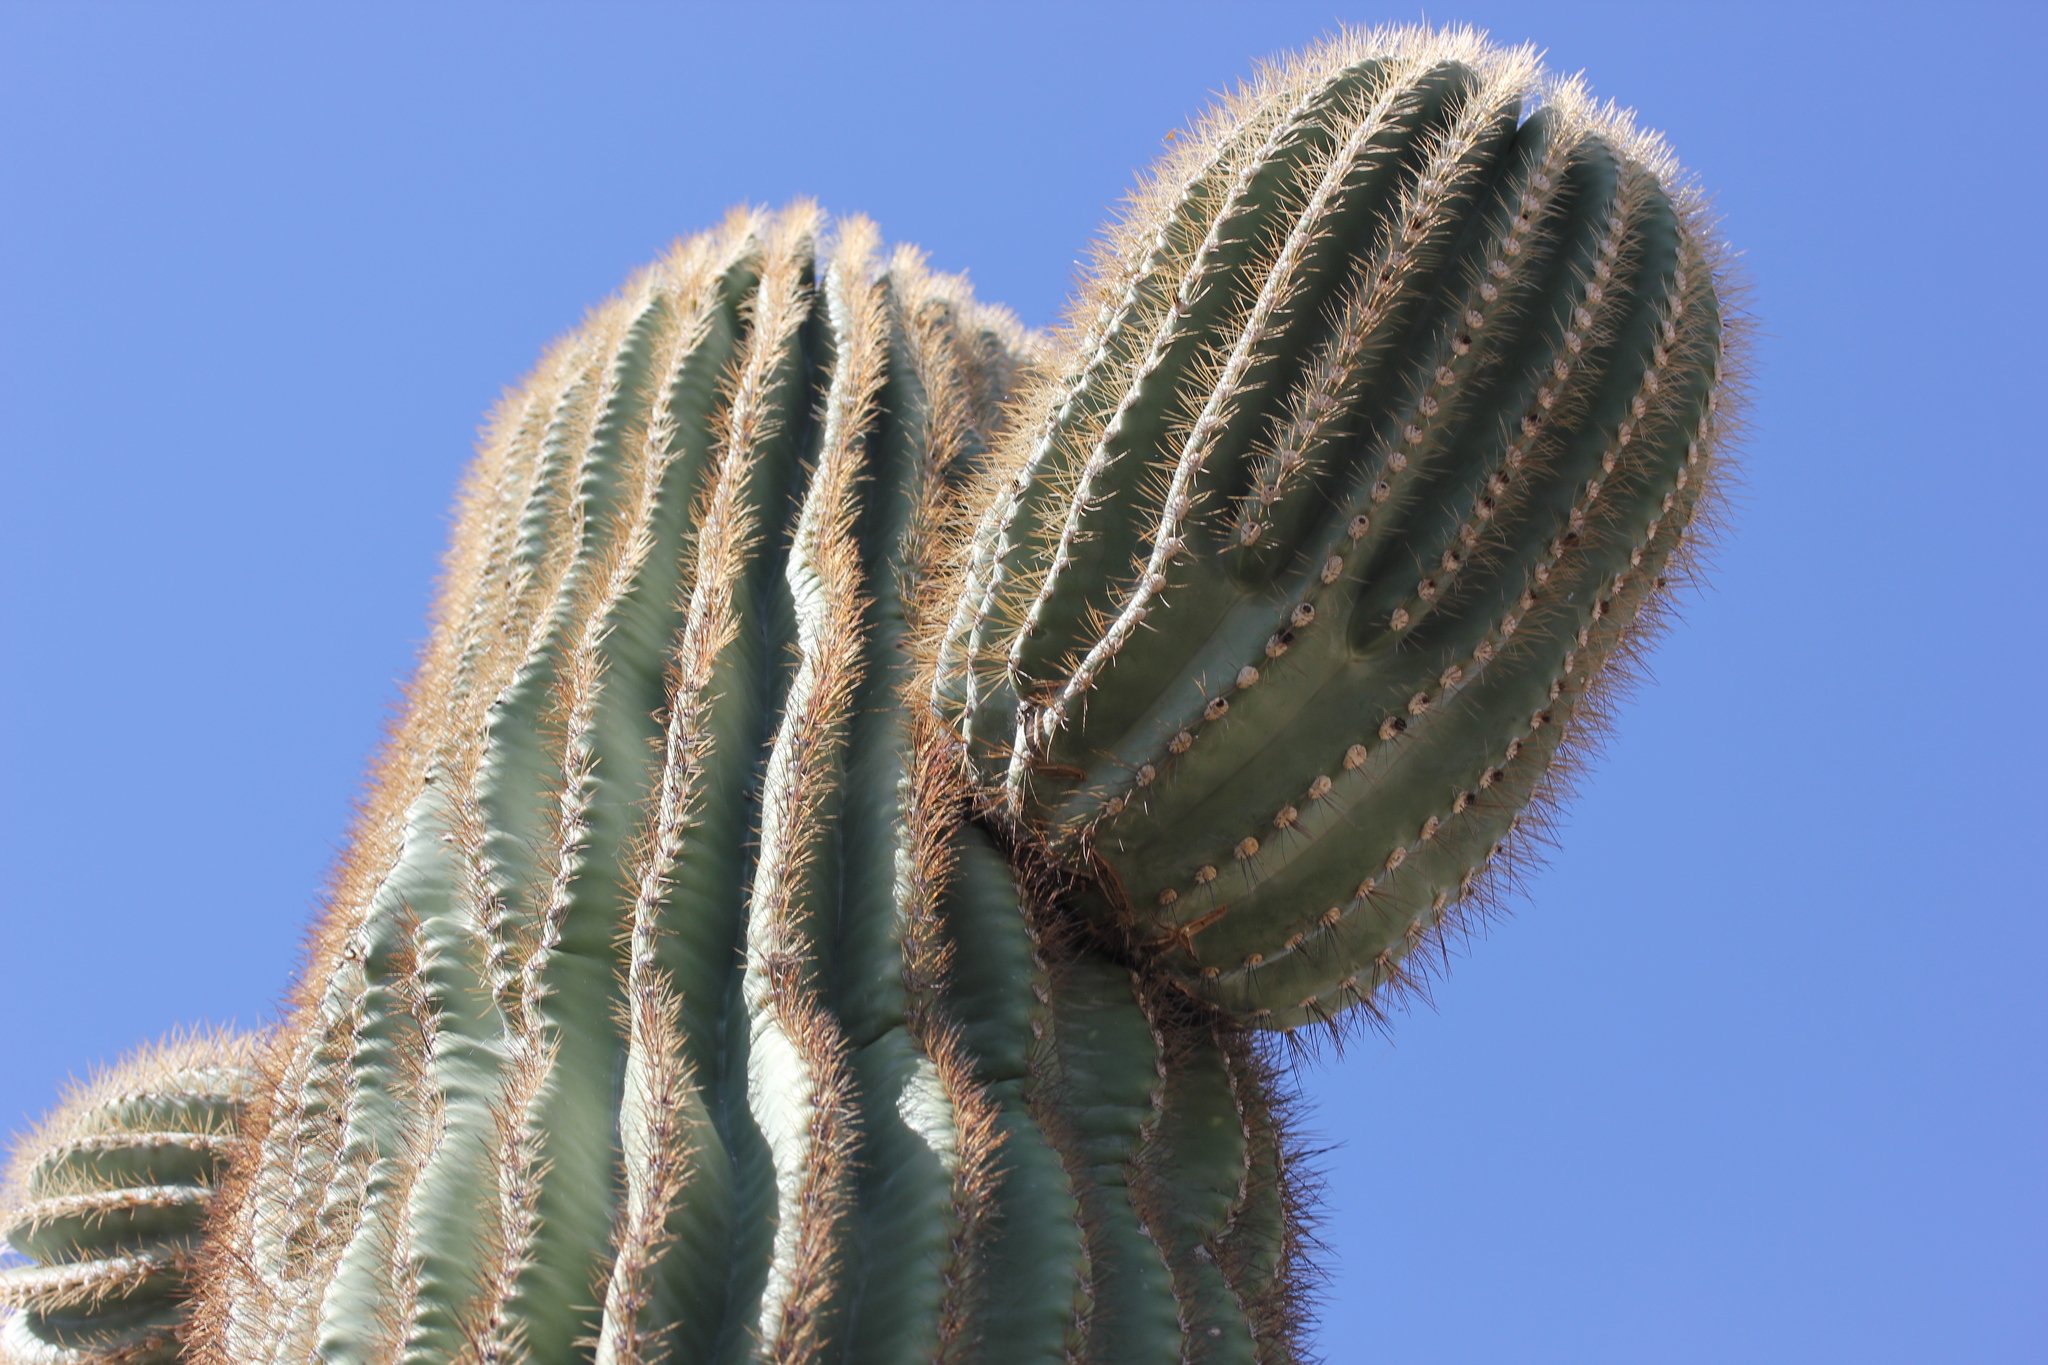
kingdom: Plantae
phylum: Tracheophyta
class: Magnoliopsida
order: Caryophyllales
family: Cactaceae
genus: Carnegiea
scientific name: Carnegiea gigantea
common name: Saguaro
